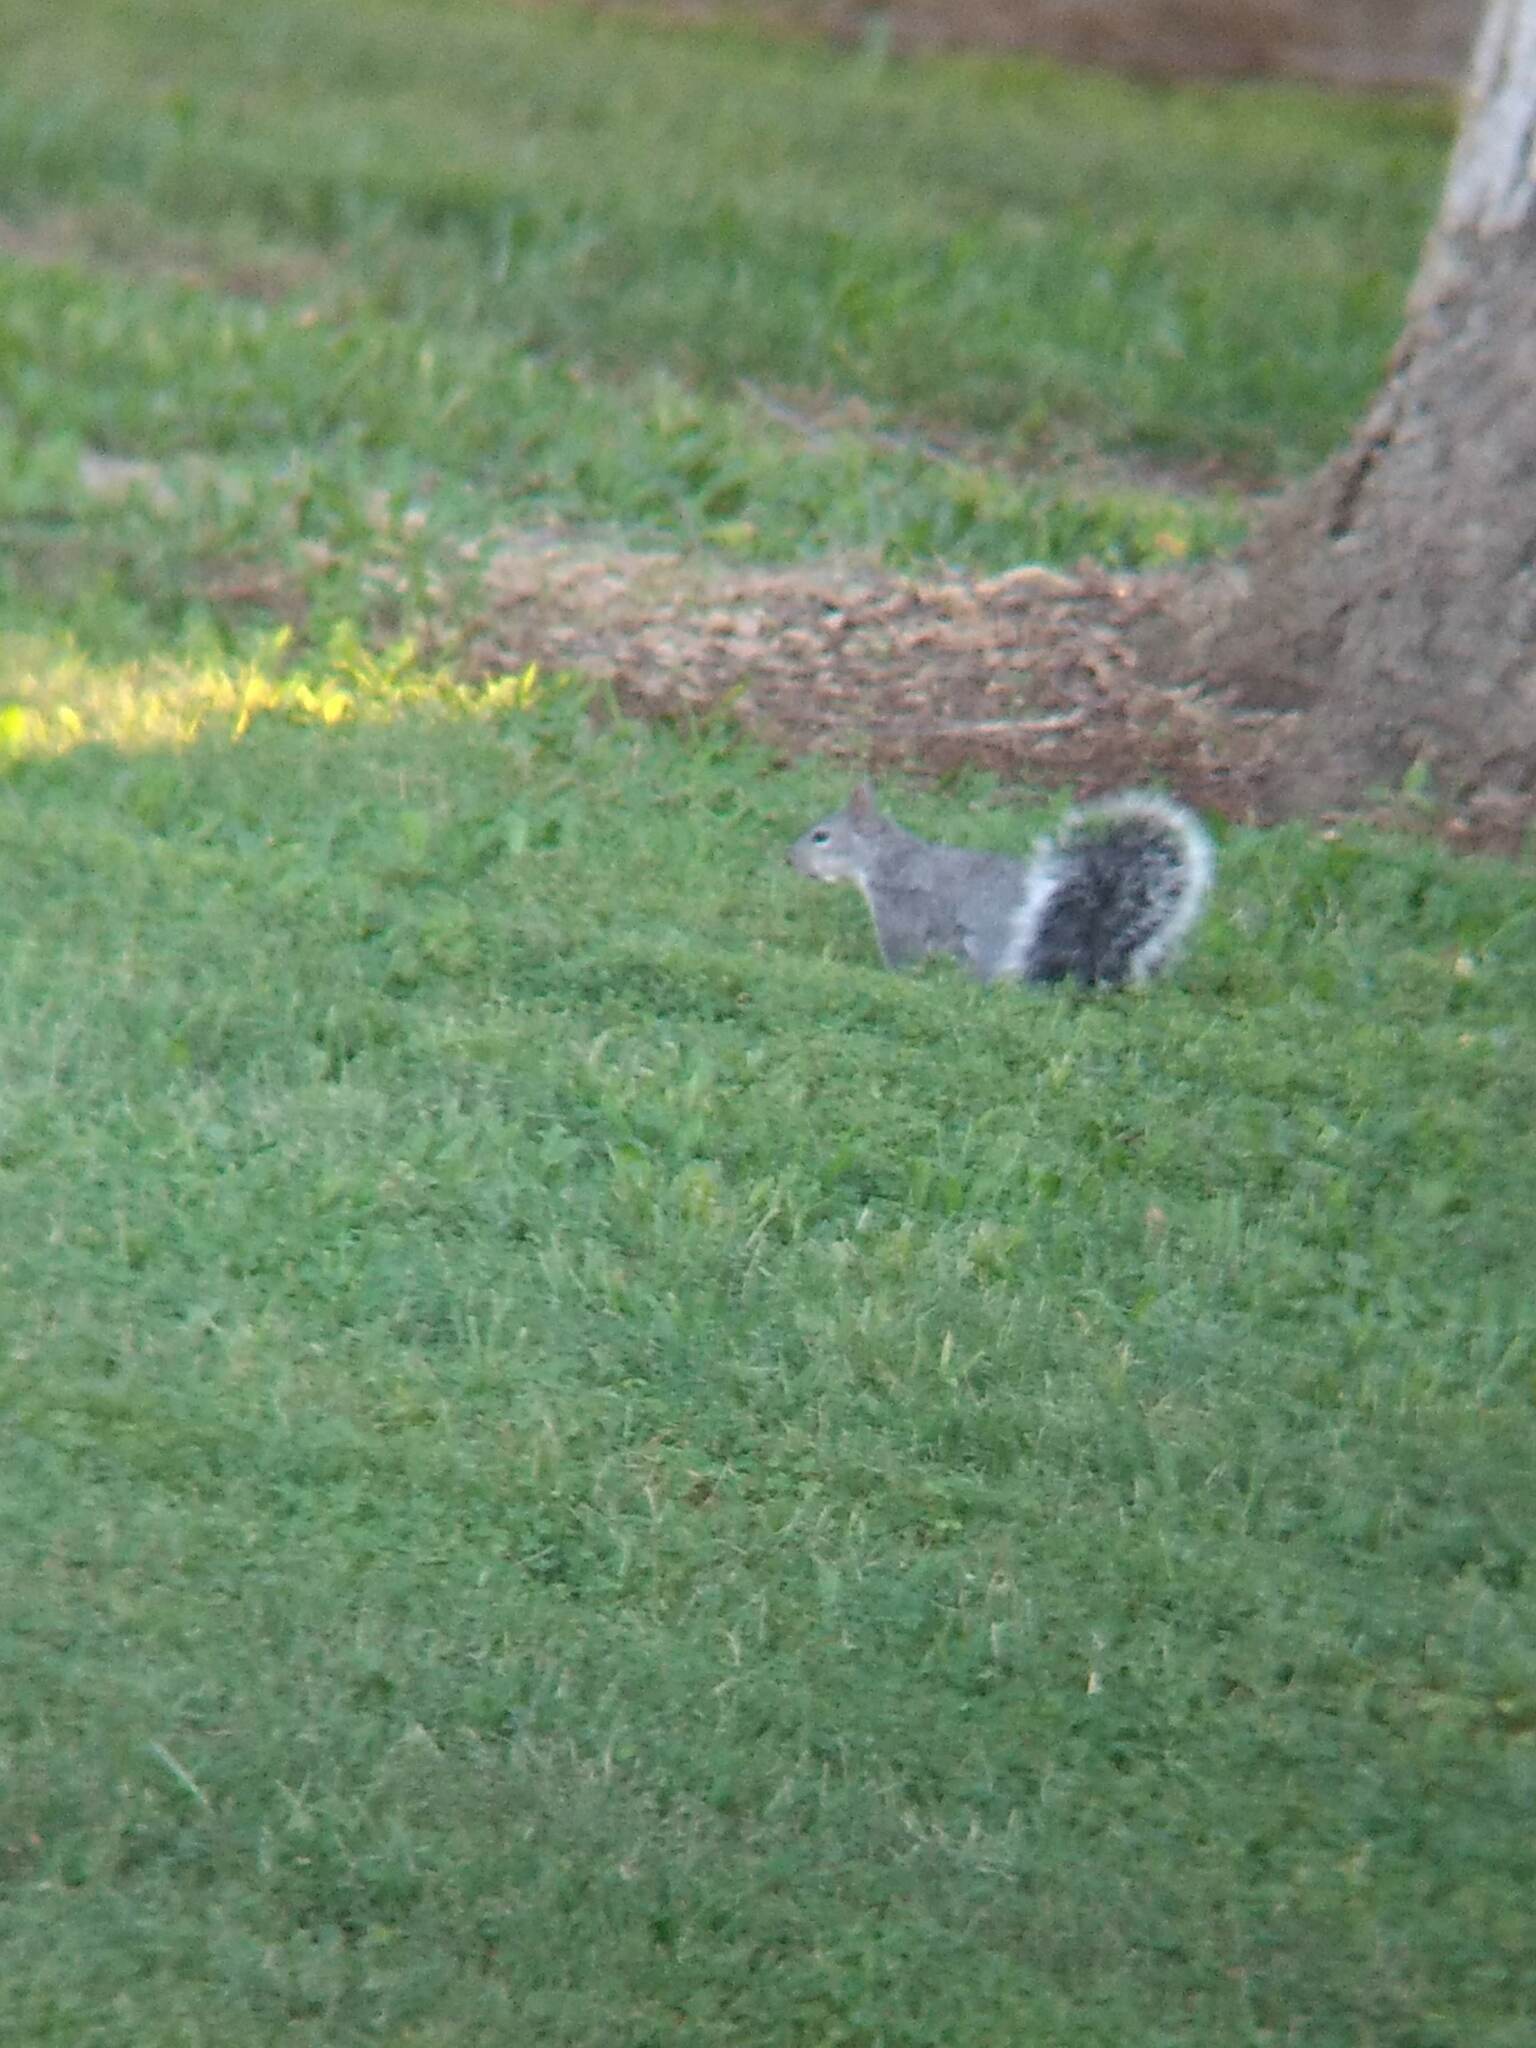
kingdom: Animalia
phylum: Chordata
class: Mammalia
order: Rodentia
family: Sciuridae
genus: Sciurus
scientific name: Sciurus griseus
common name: Western gray squirrel
